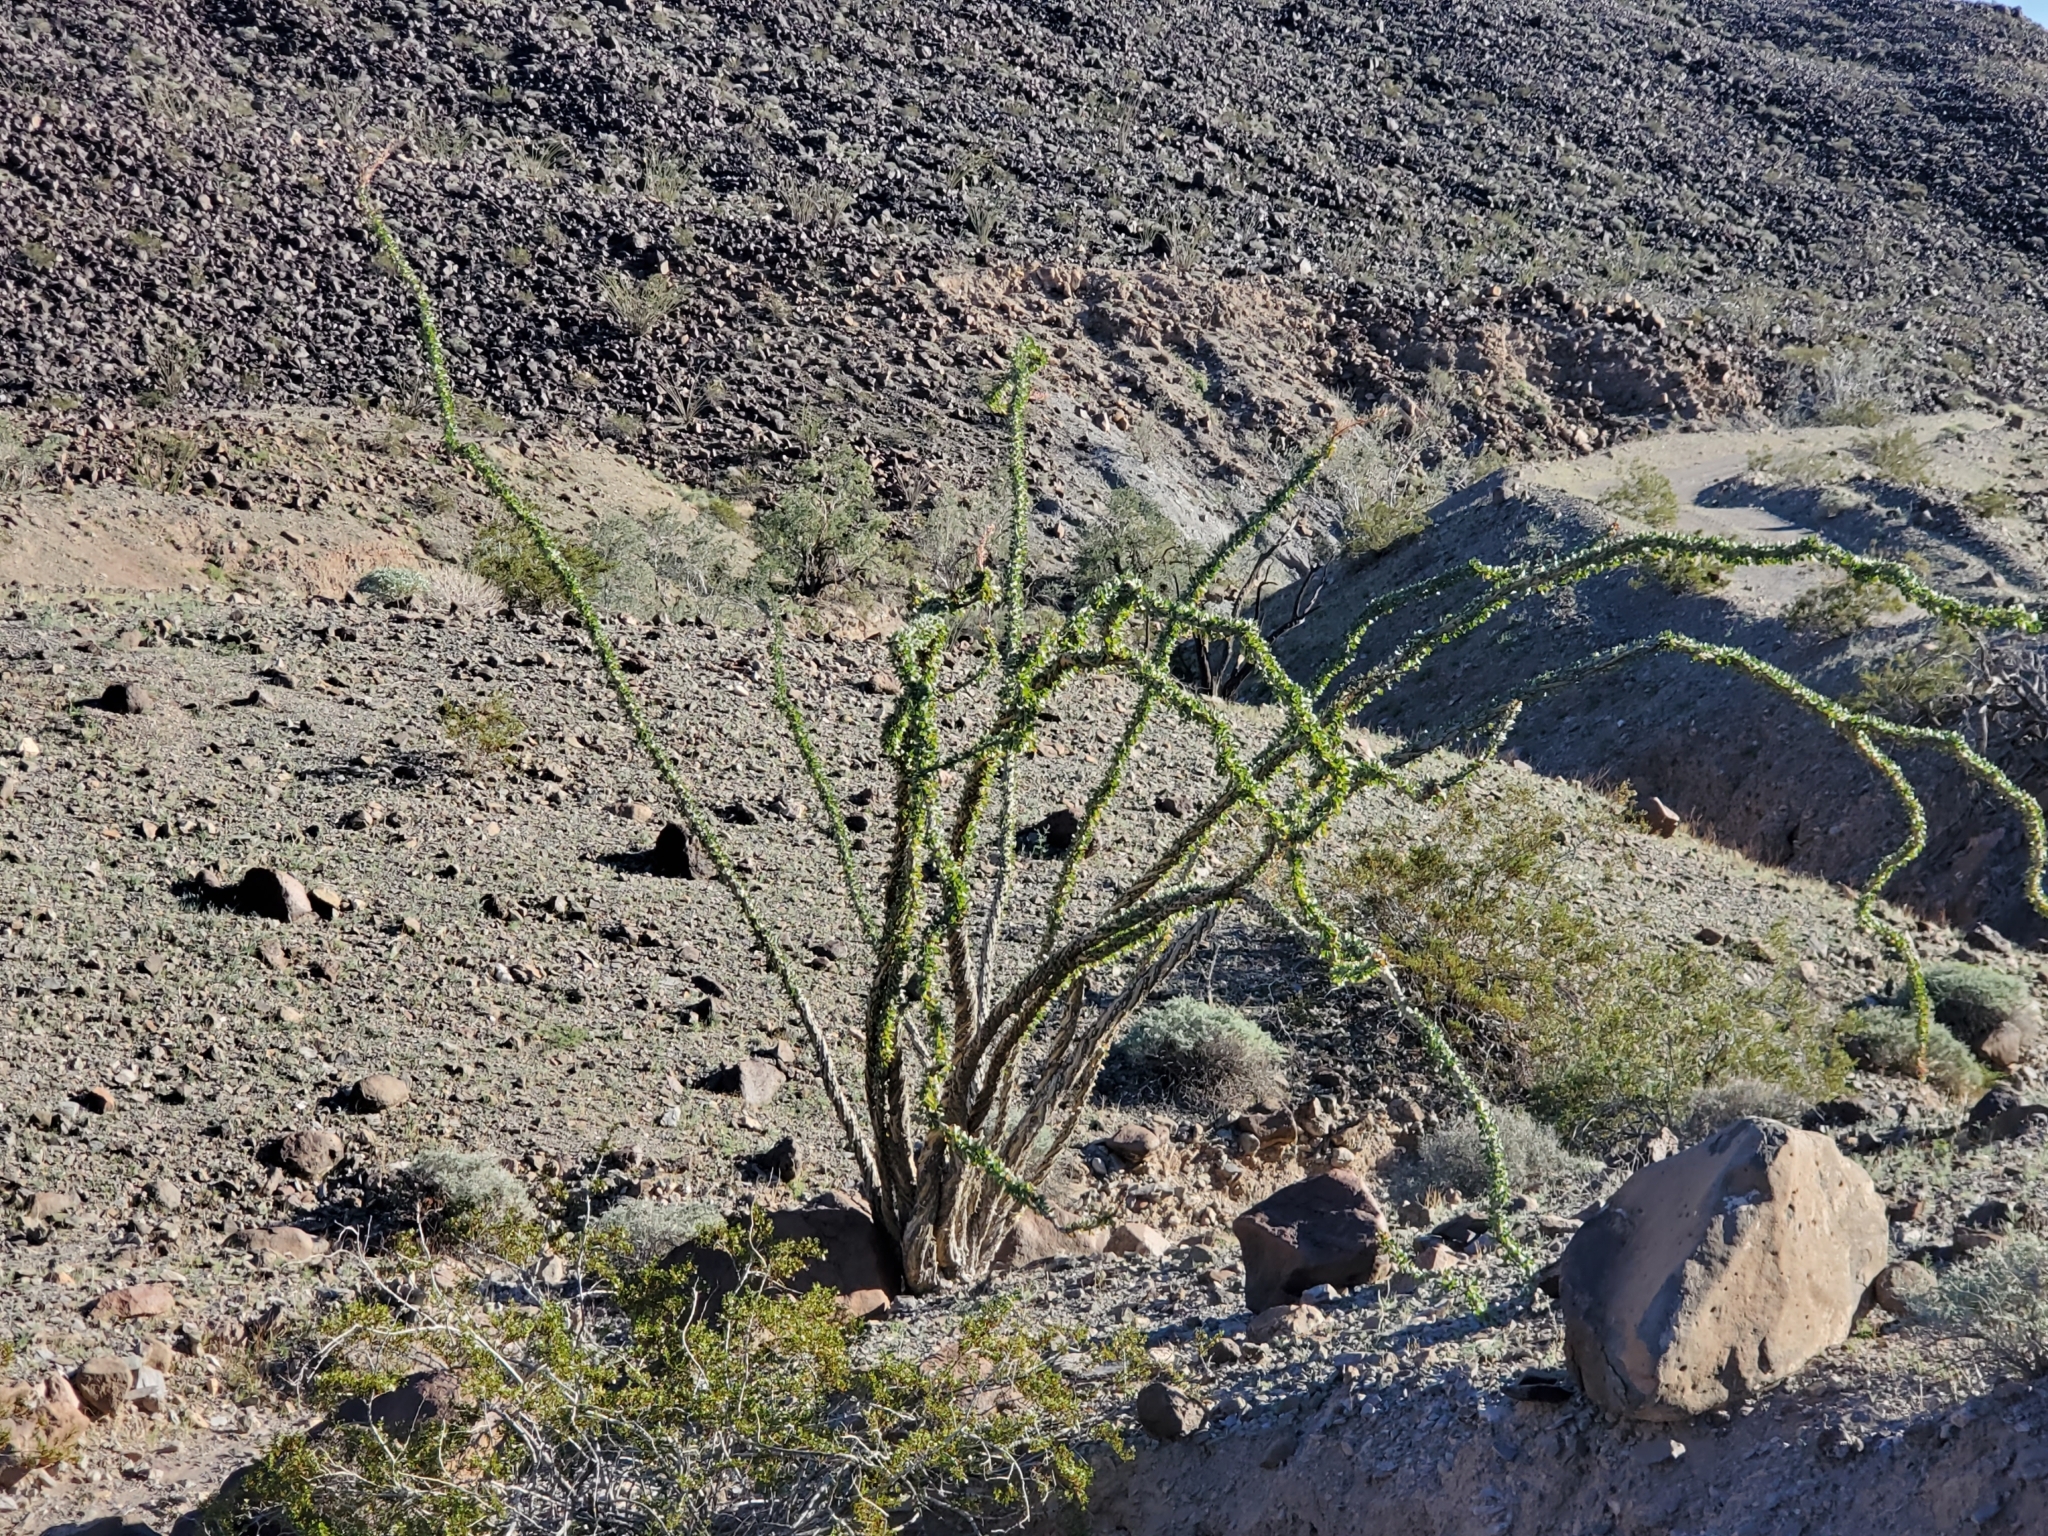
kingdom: Plantae
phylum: Tracheophyta
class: Magnoliopsida
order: Ericales
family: Fouquieriaceae
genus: Fouquieria
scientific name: Fouquieria splendens
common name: Vine-cactus
